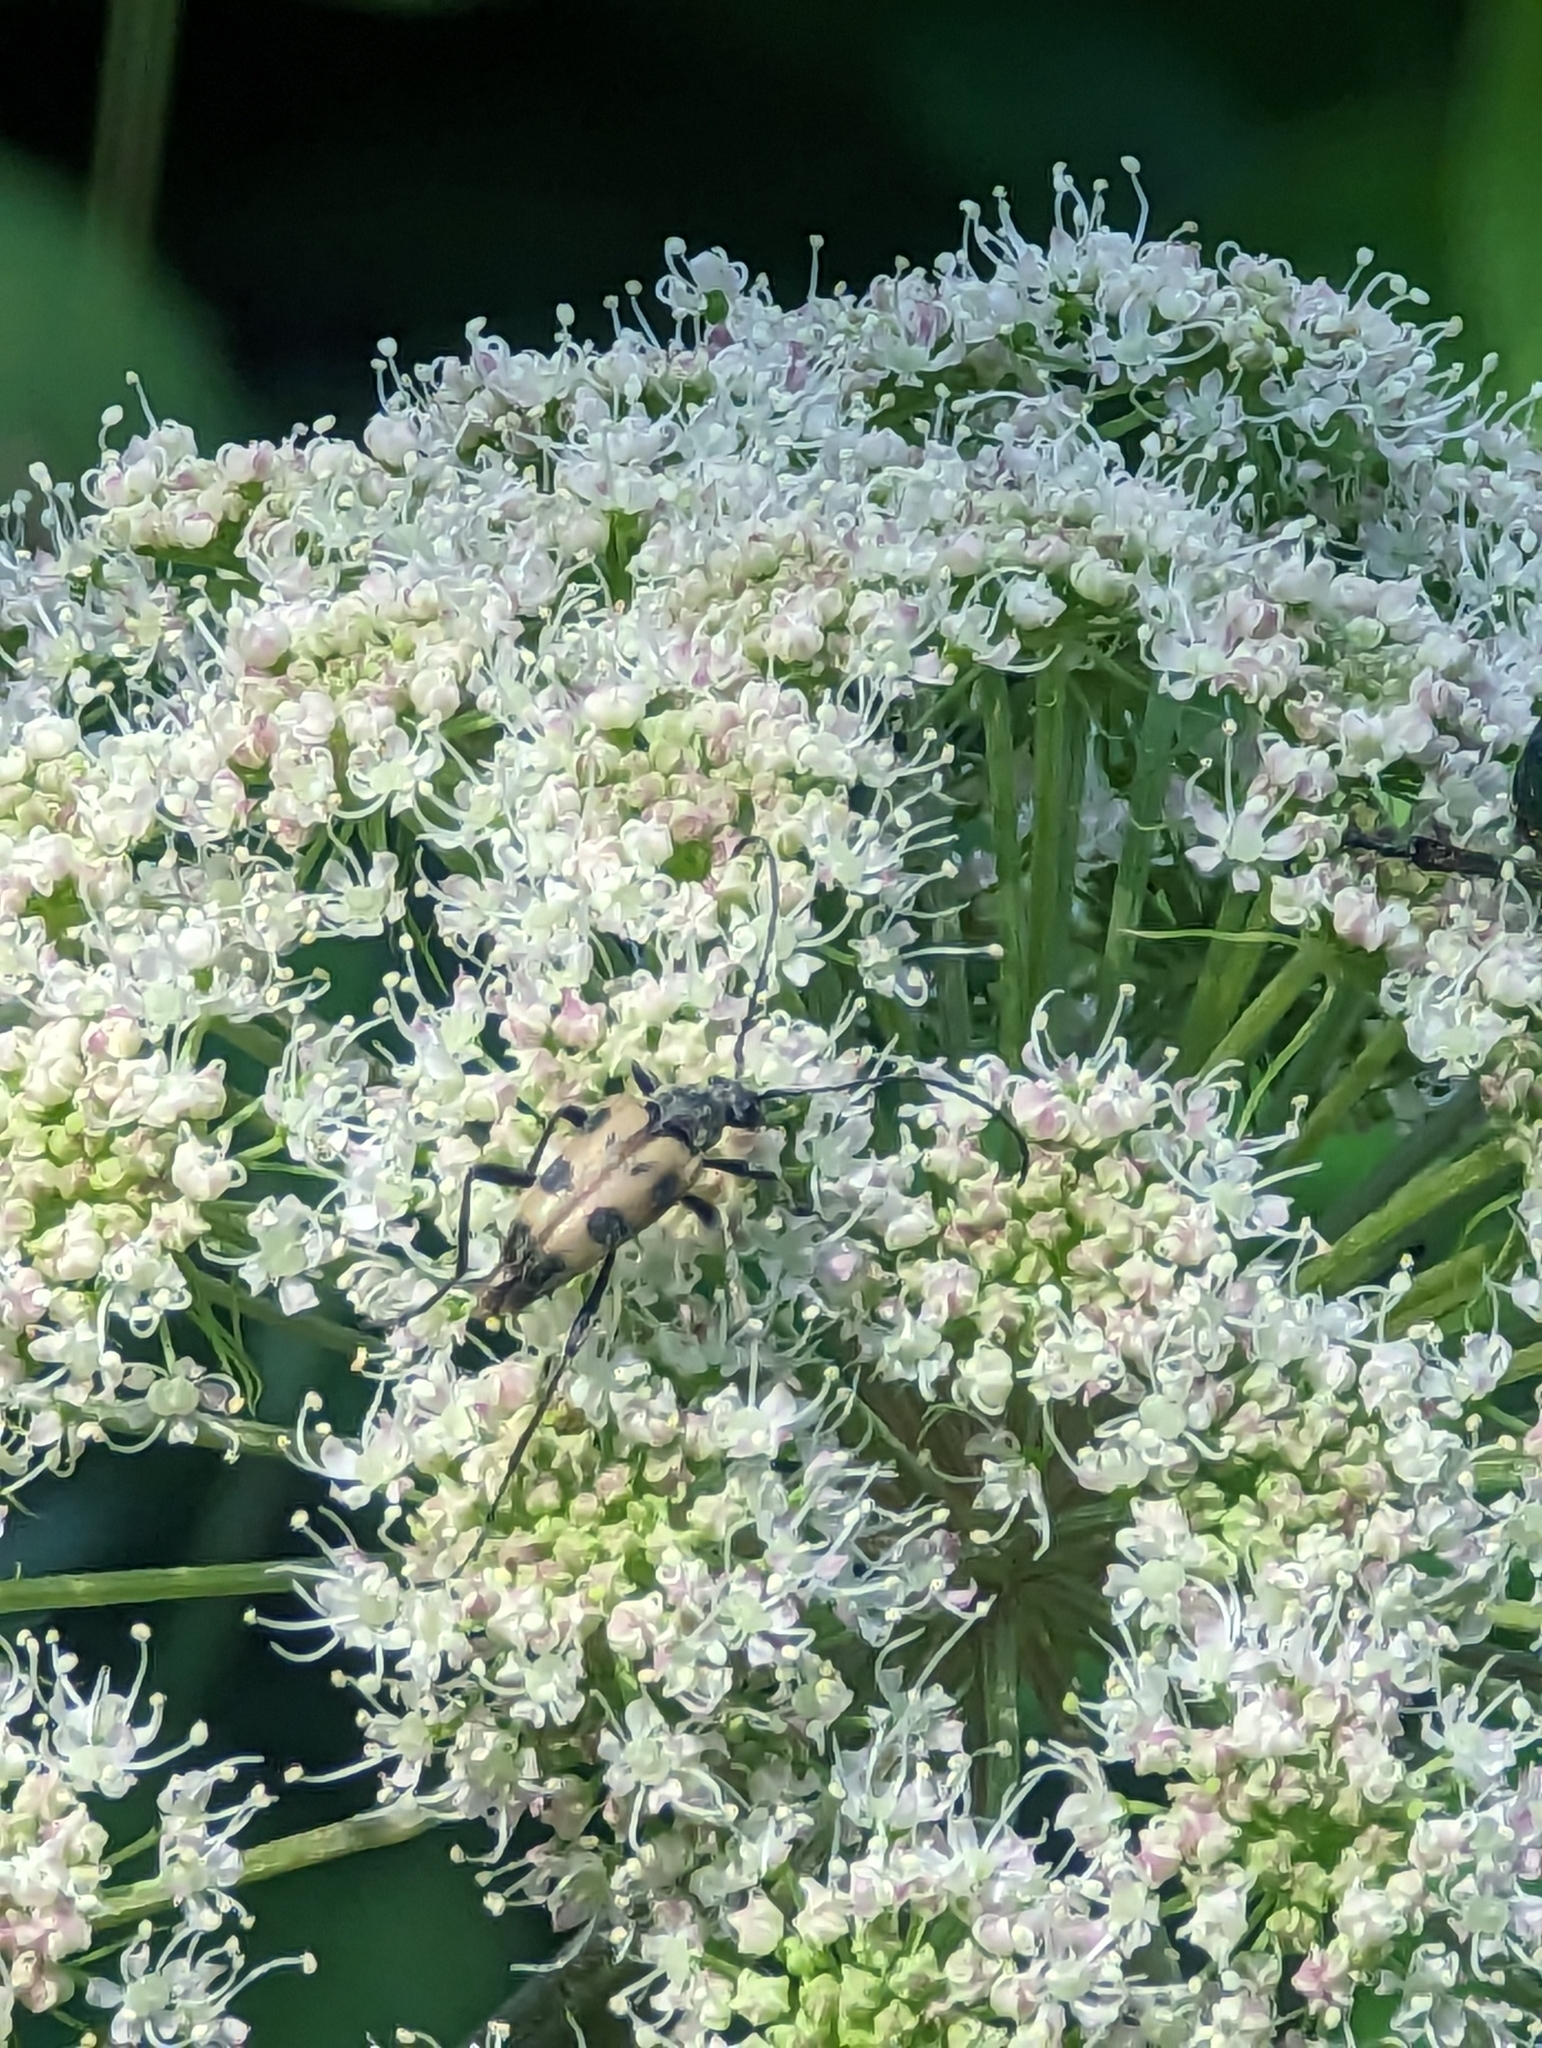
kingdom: Animalia
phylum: Arthropoda
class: Insecta
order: Coleoptera
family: Cerambycidae
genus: Pachytodes
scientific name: Pachytodes cerambyciformis
